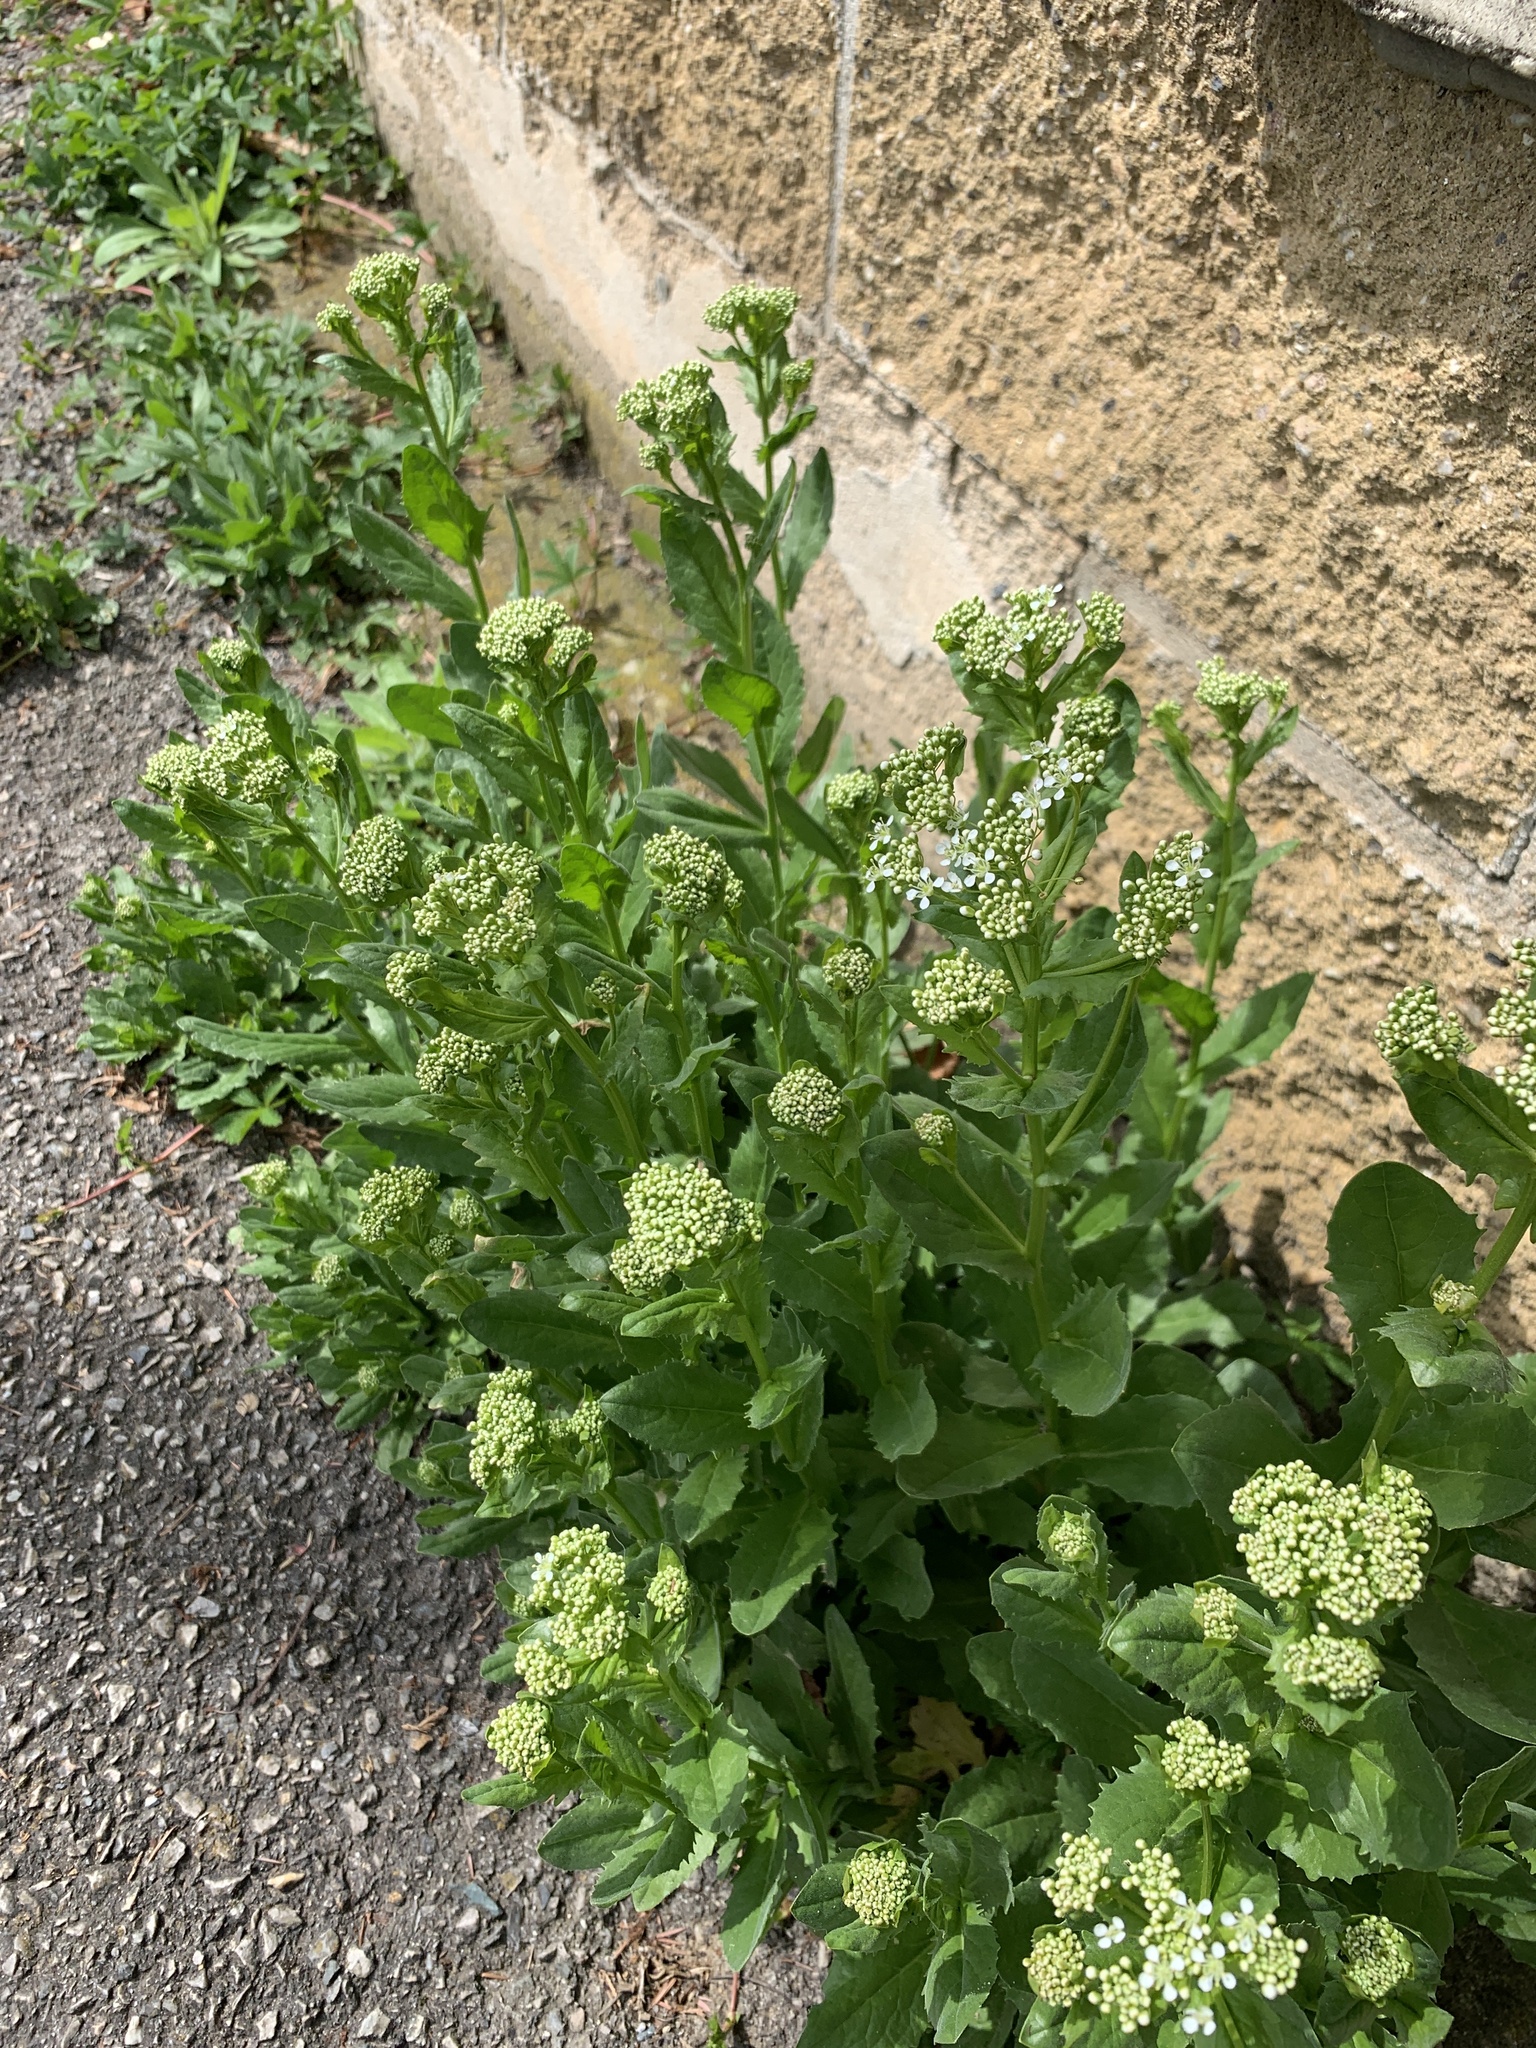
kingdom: Plantae
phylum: Tracheophyta
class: Magnoliopsida
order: Brassicales
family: Brassicaceae
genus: Lepidium
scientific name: Lepidium draba
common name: Hoary cress
